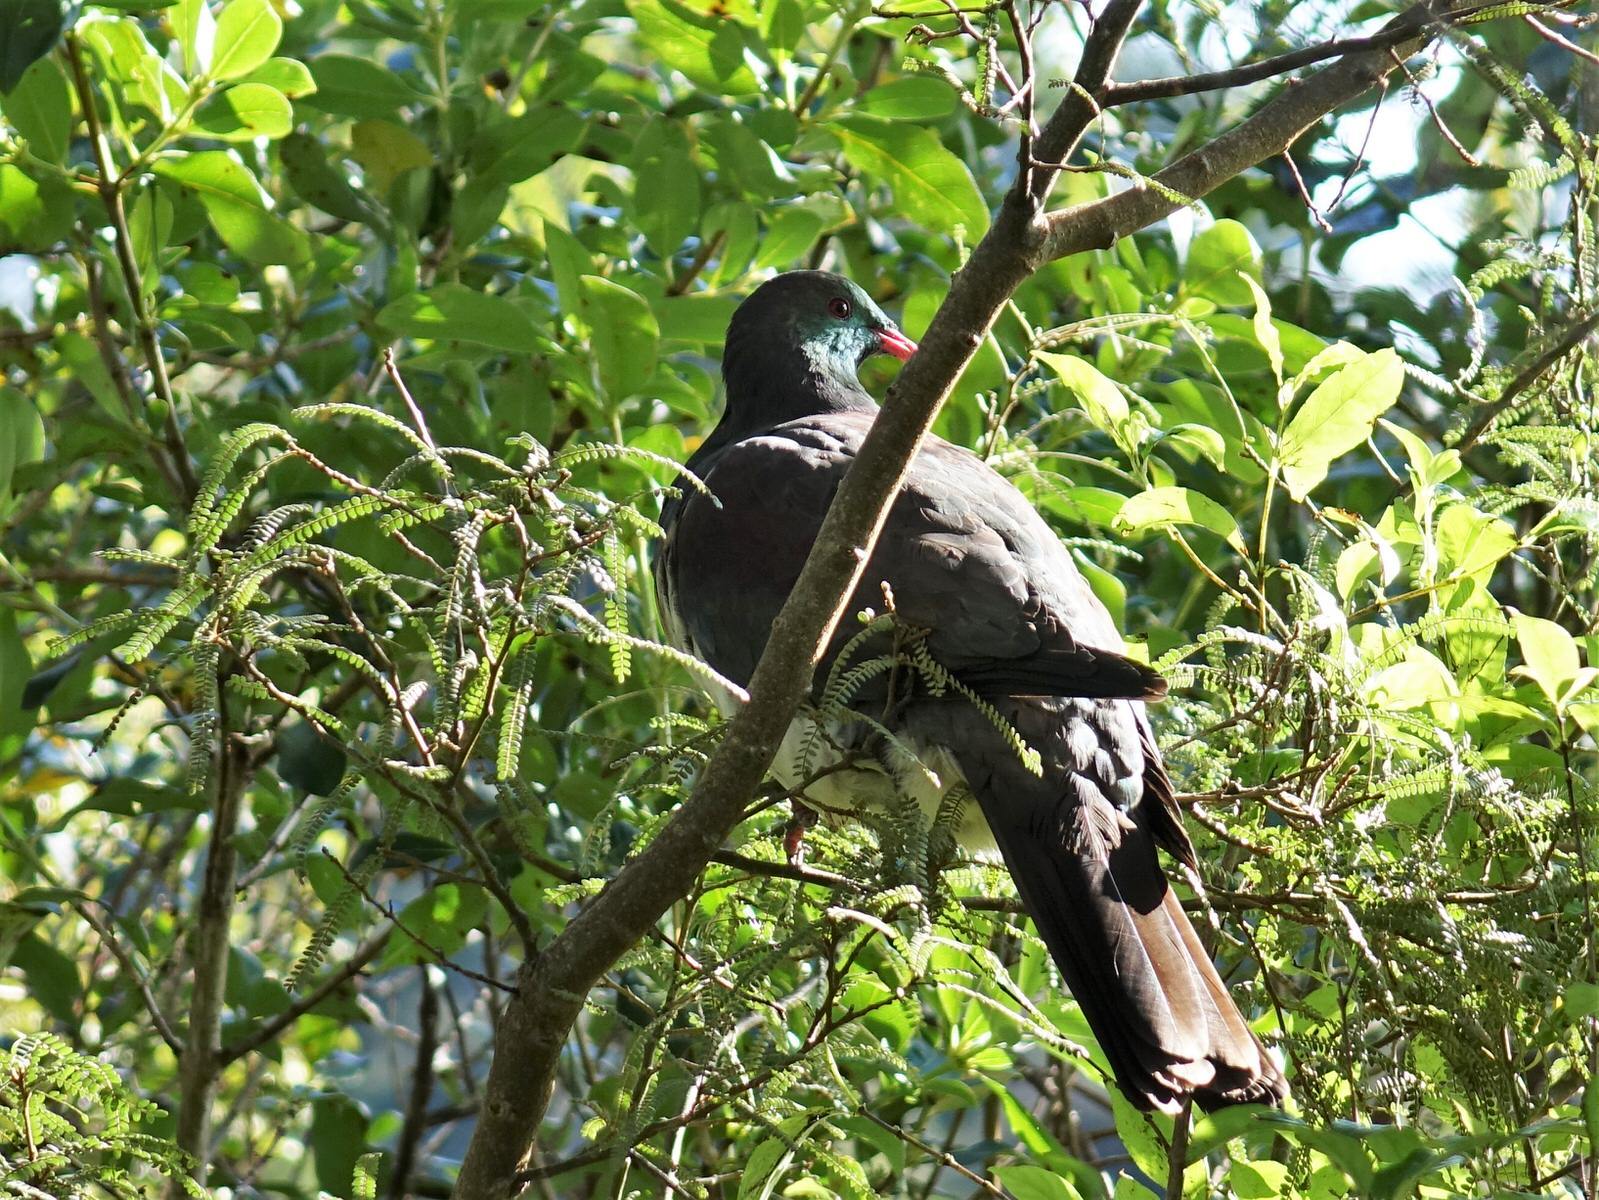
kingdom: Animalia
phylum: Chordata
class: Aves
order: Columbiformes
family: Columbidae
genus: Hemiphaga
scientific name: Hemiphaga novaeseelandiae
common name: New zealand pigeon
